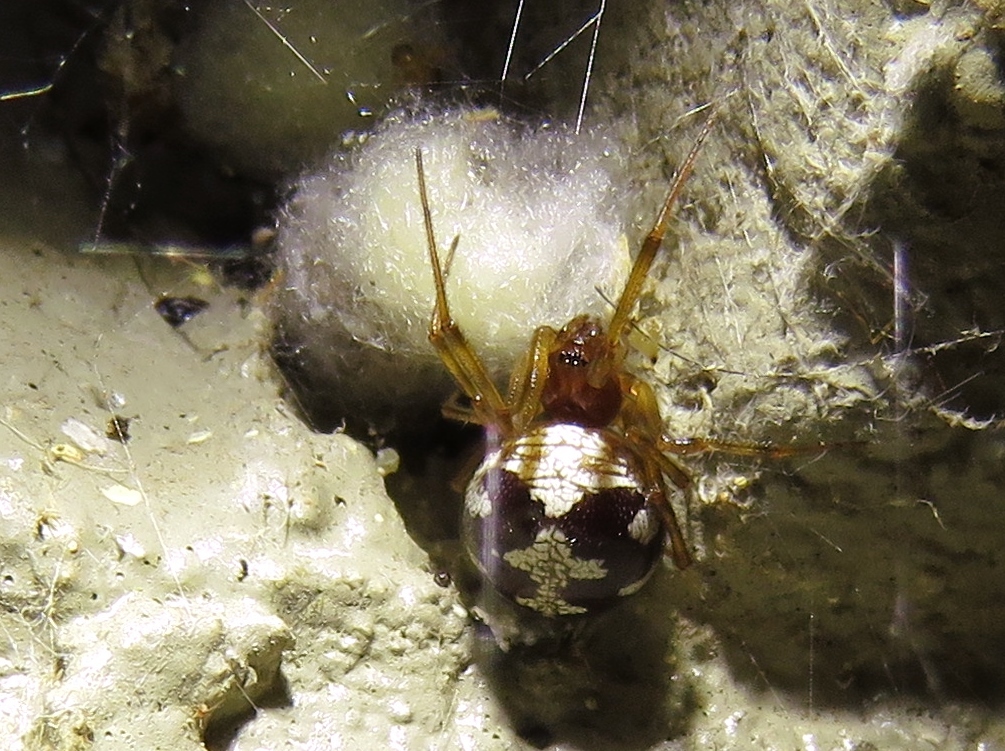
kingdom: Animalia
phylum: Arthropoda
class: Arachnida
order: Araneae
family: Theridiidae
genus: Steatoda
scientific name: Steatoda triangulosa
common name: Triangulate bud spider
